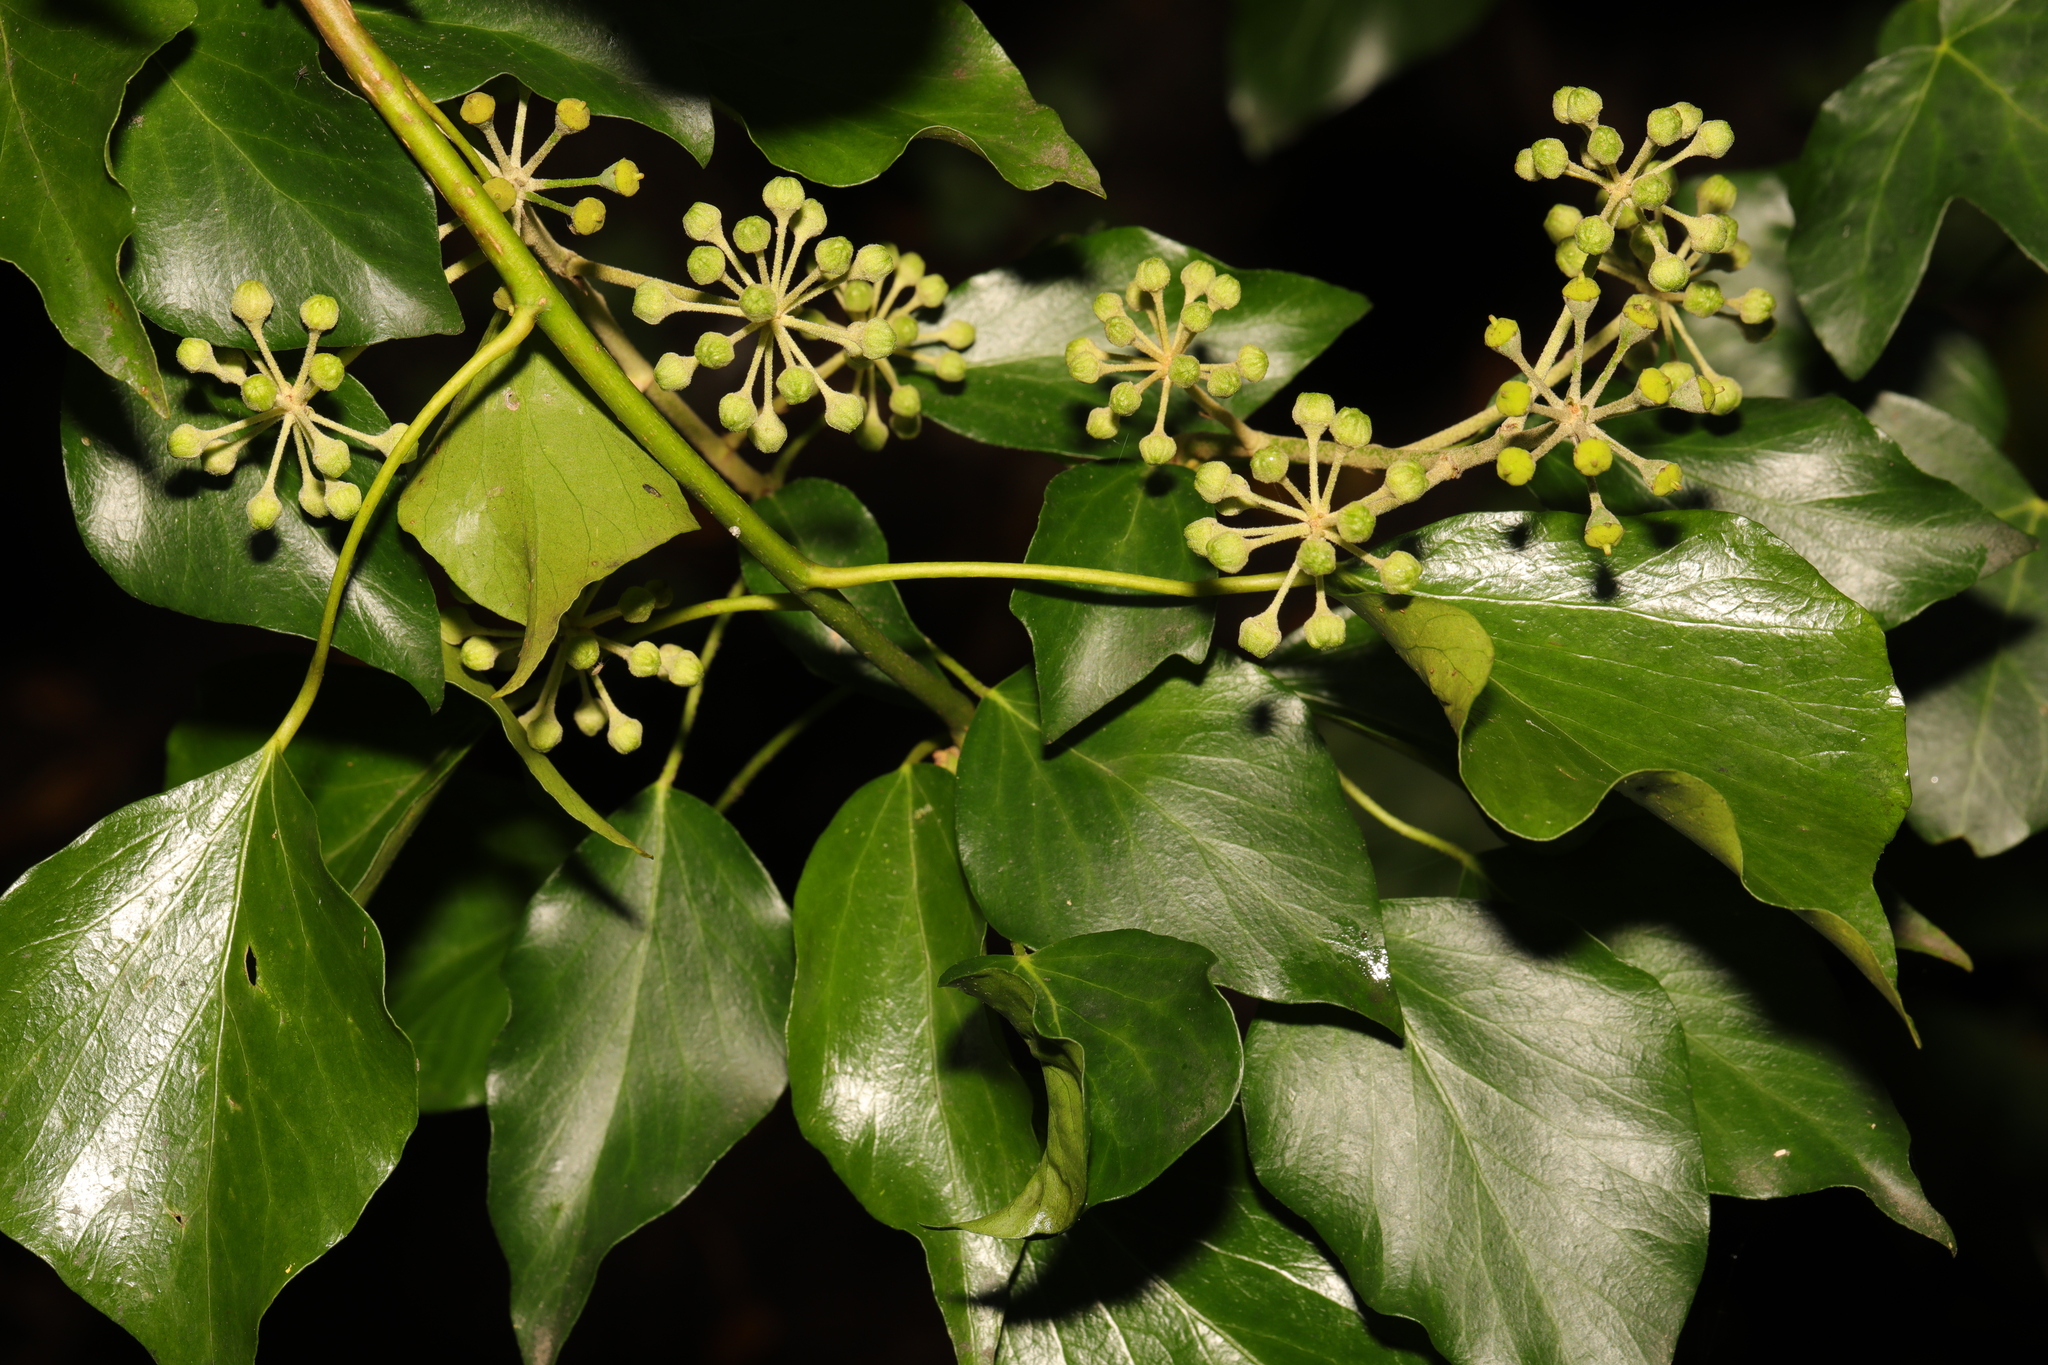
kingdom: Plantae
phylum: Tracheophyta
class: Magnoliopsida
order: Apiales
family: Araliaceae
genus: Hedera
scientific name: Hedera helix
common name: Ivy
